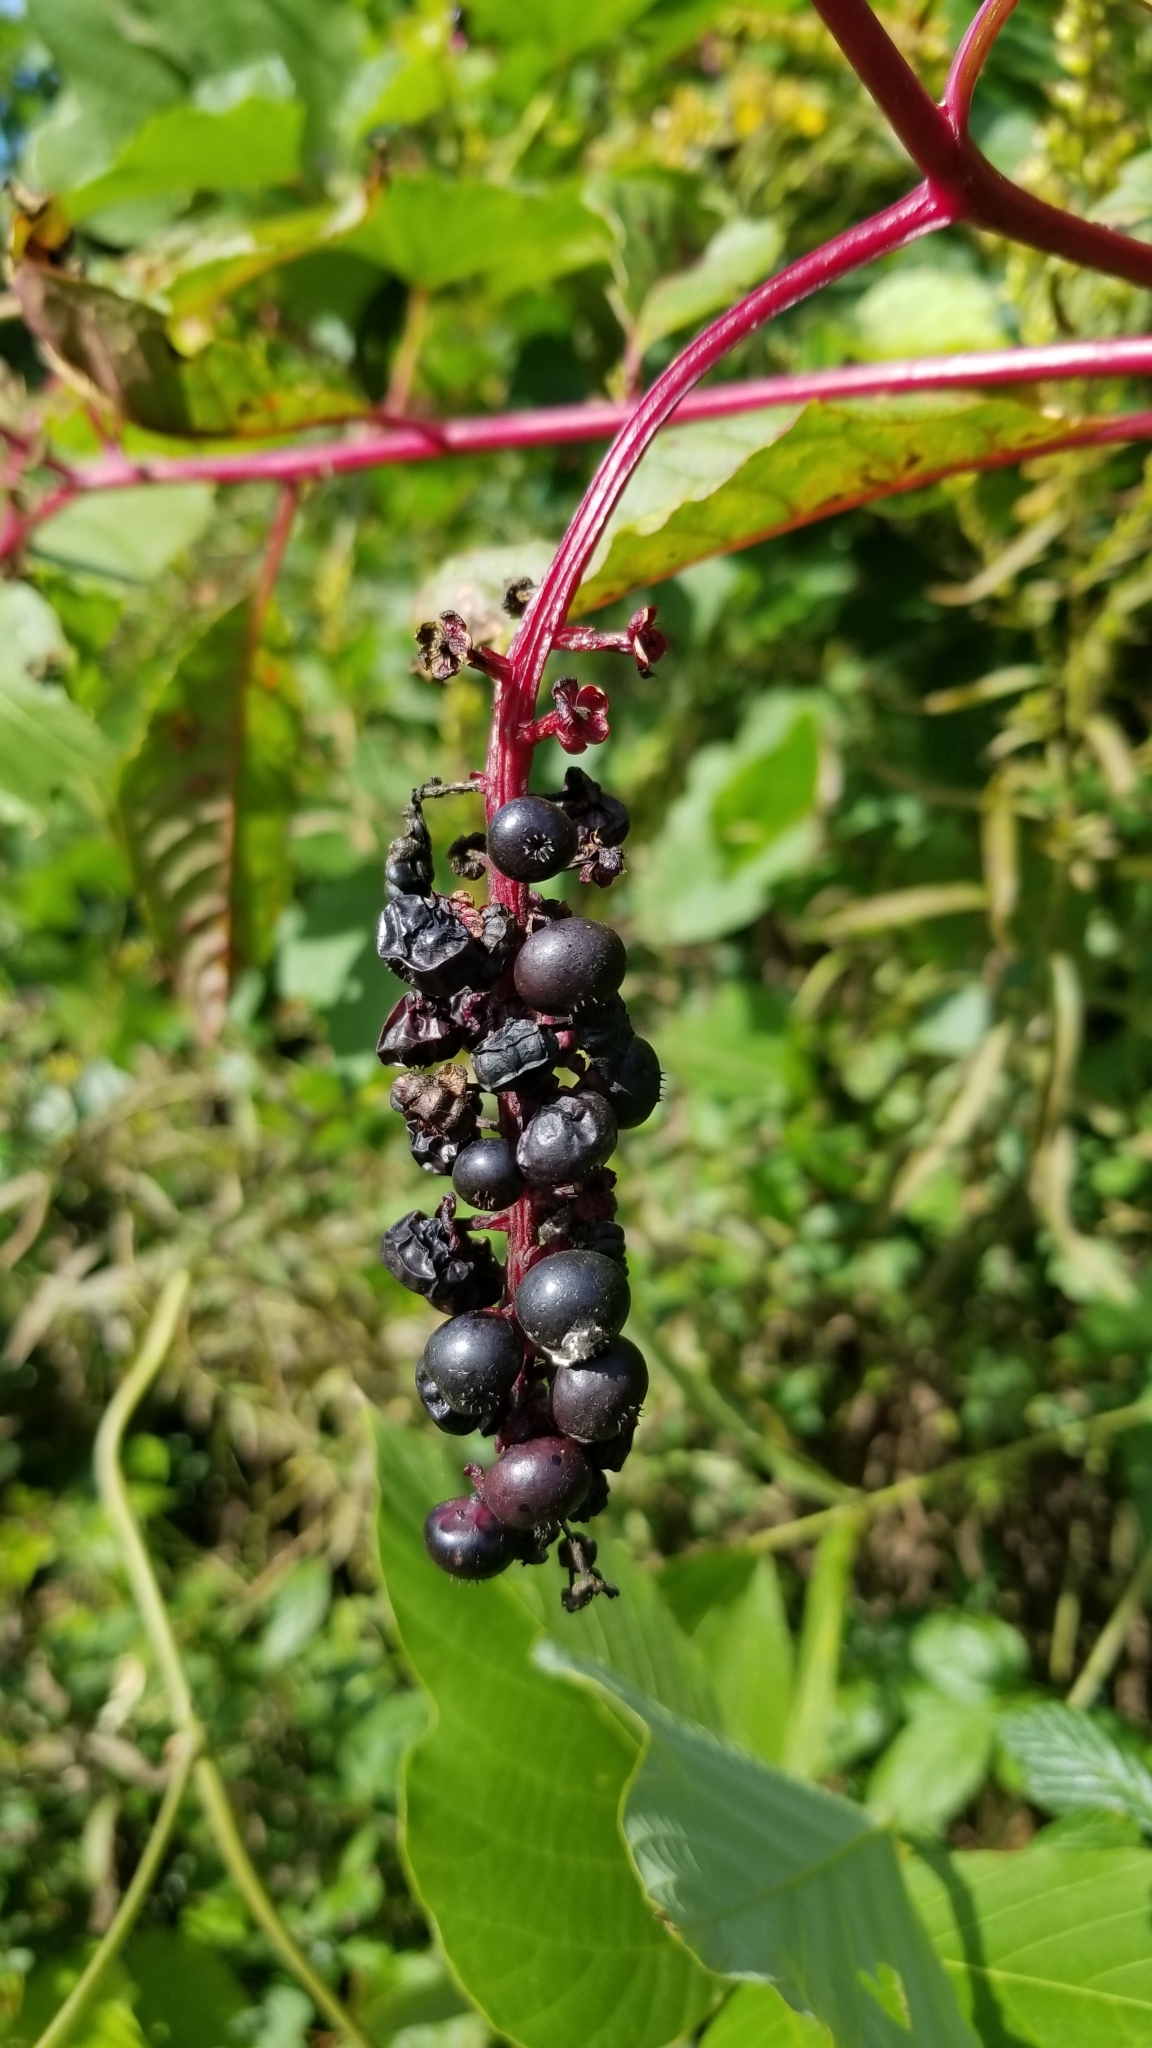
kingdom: Plantae
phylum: Tracheophyta
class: Magnoliopsida
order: Caryophyllales
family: Phytolaccaceae
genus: Phytolacca
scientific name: Phytolacca americana
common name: American pokeweed
